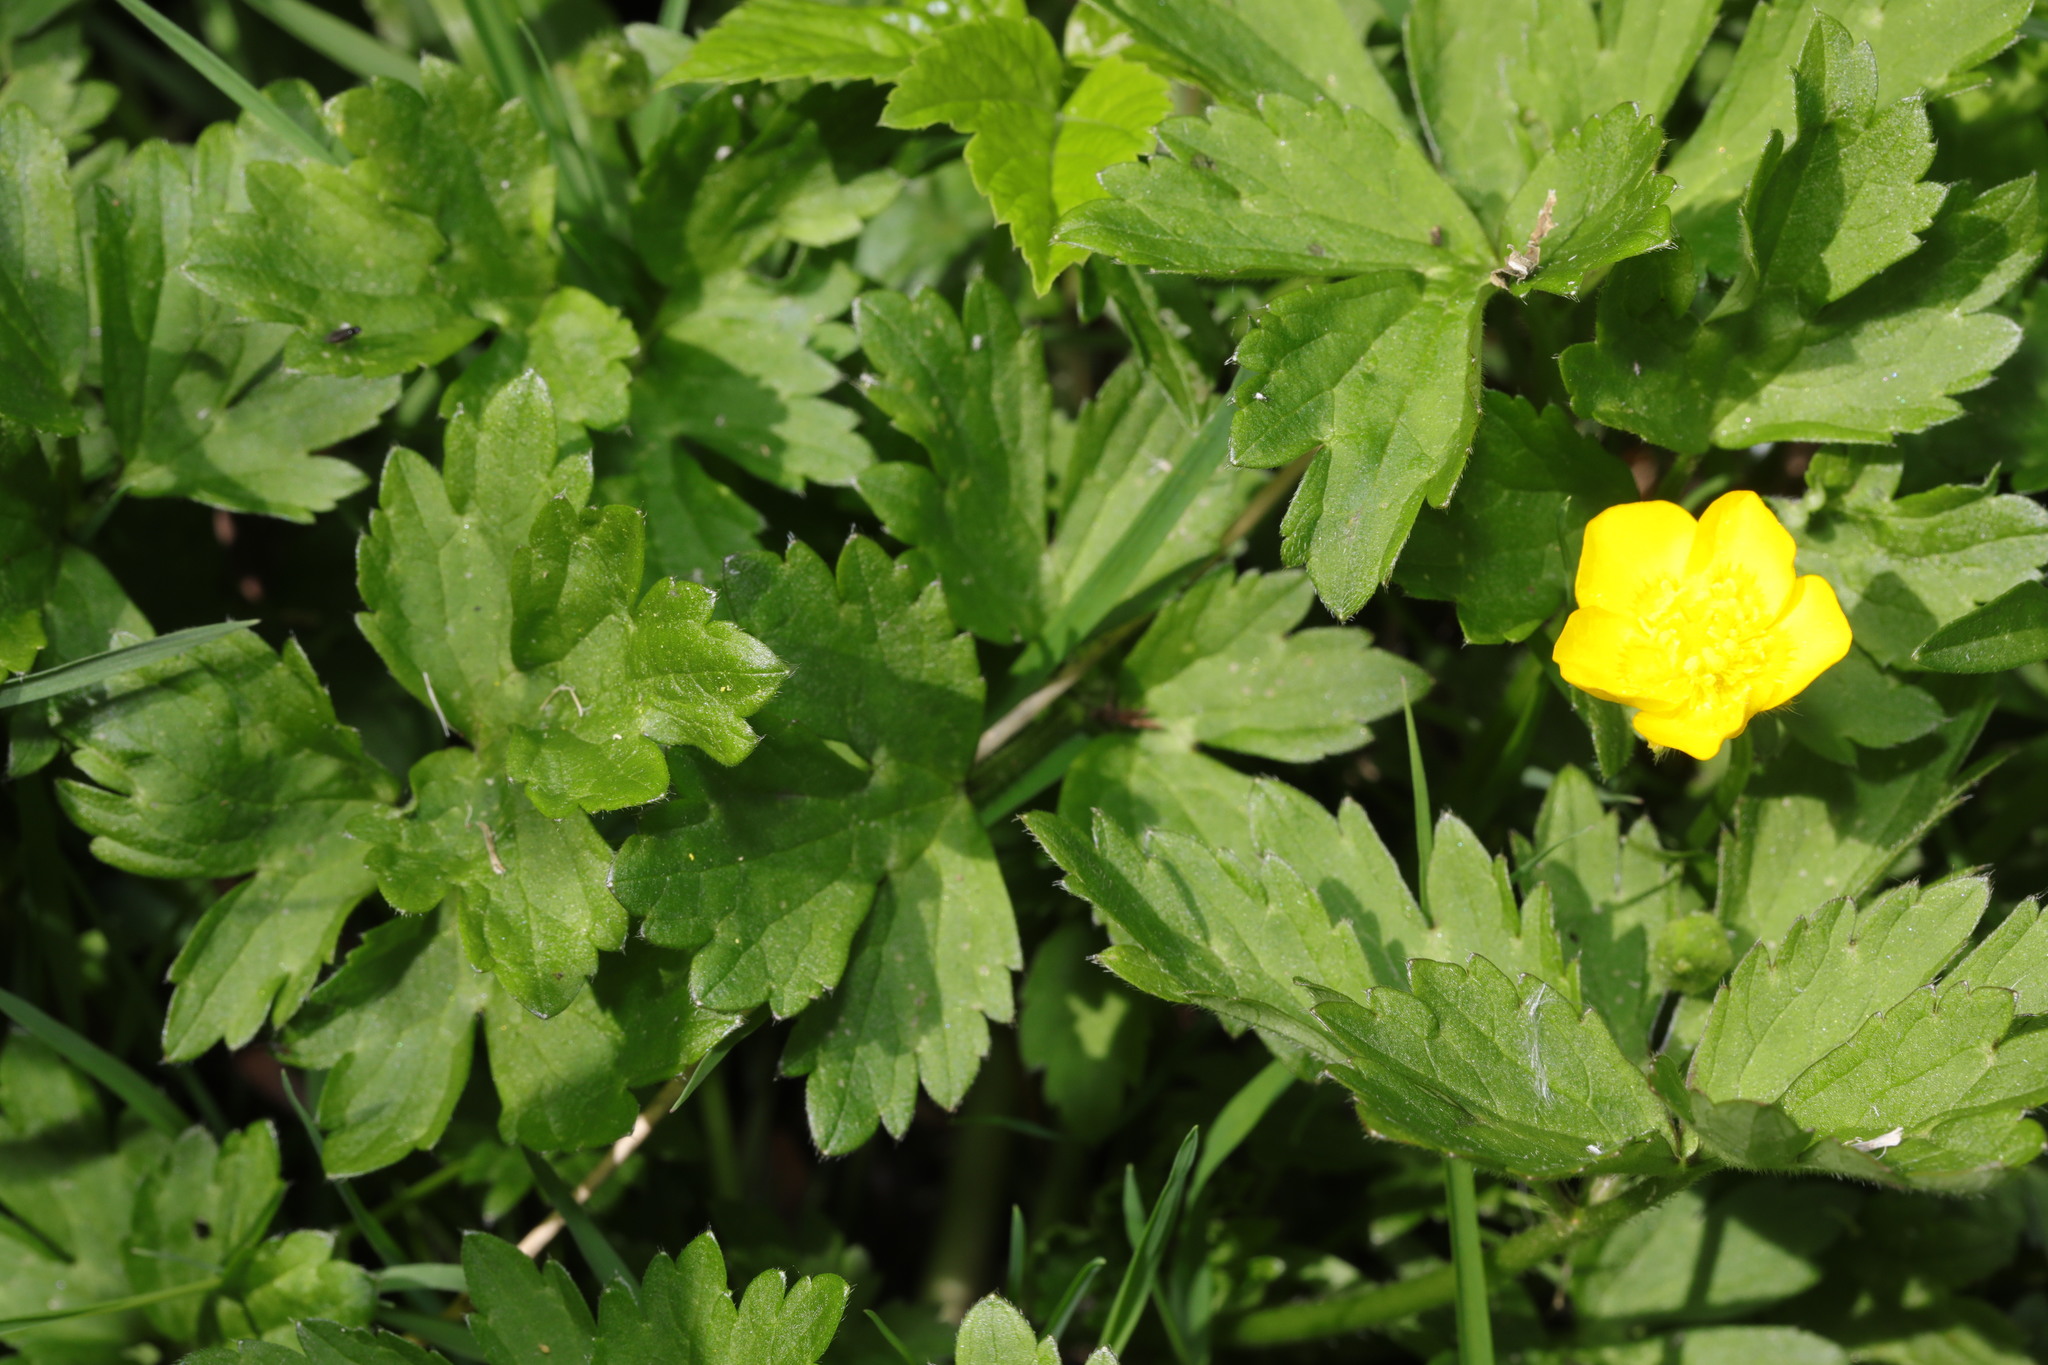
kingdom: Plantae
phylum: Tracheophyta
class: Magnoliopsida
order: Ranunculales
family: Ranunculaceae
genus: Ranunculus
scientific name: Ranunculus repens
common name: Creeping buttercup
